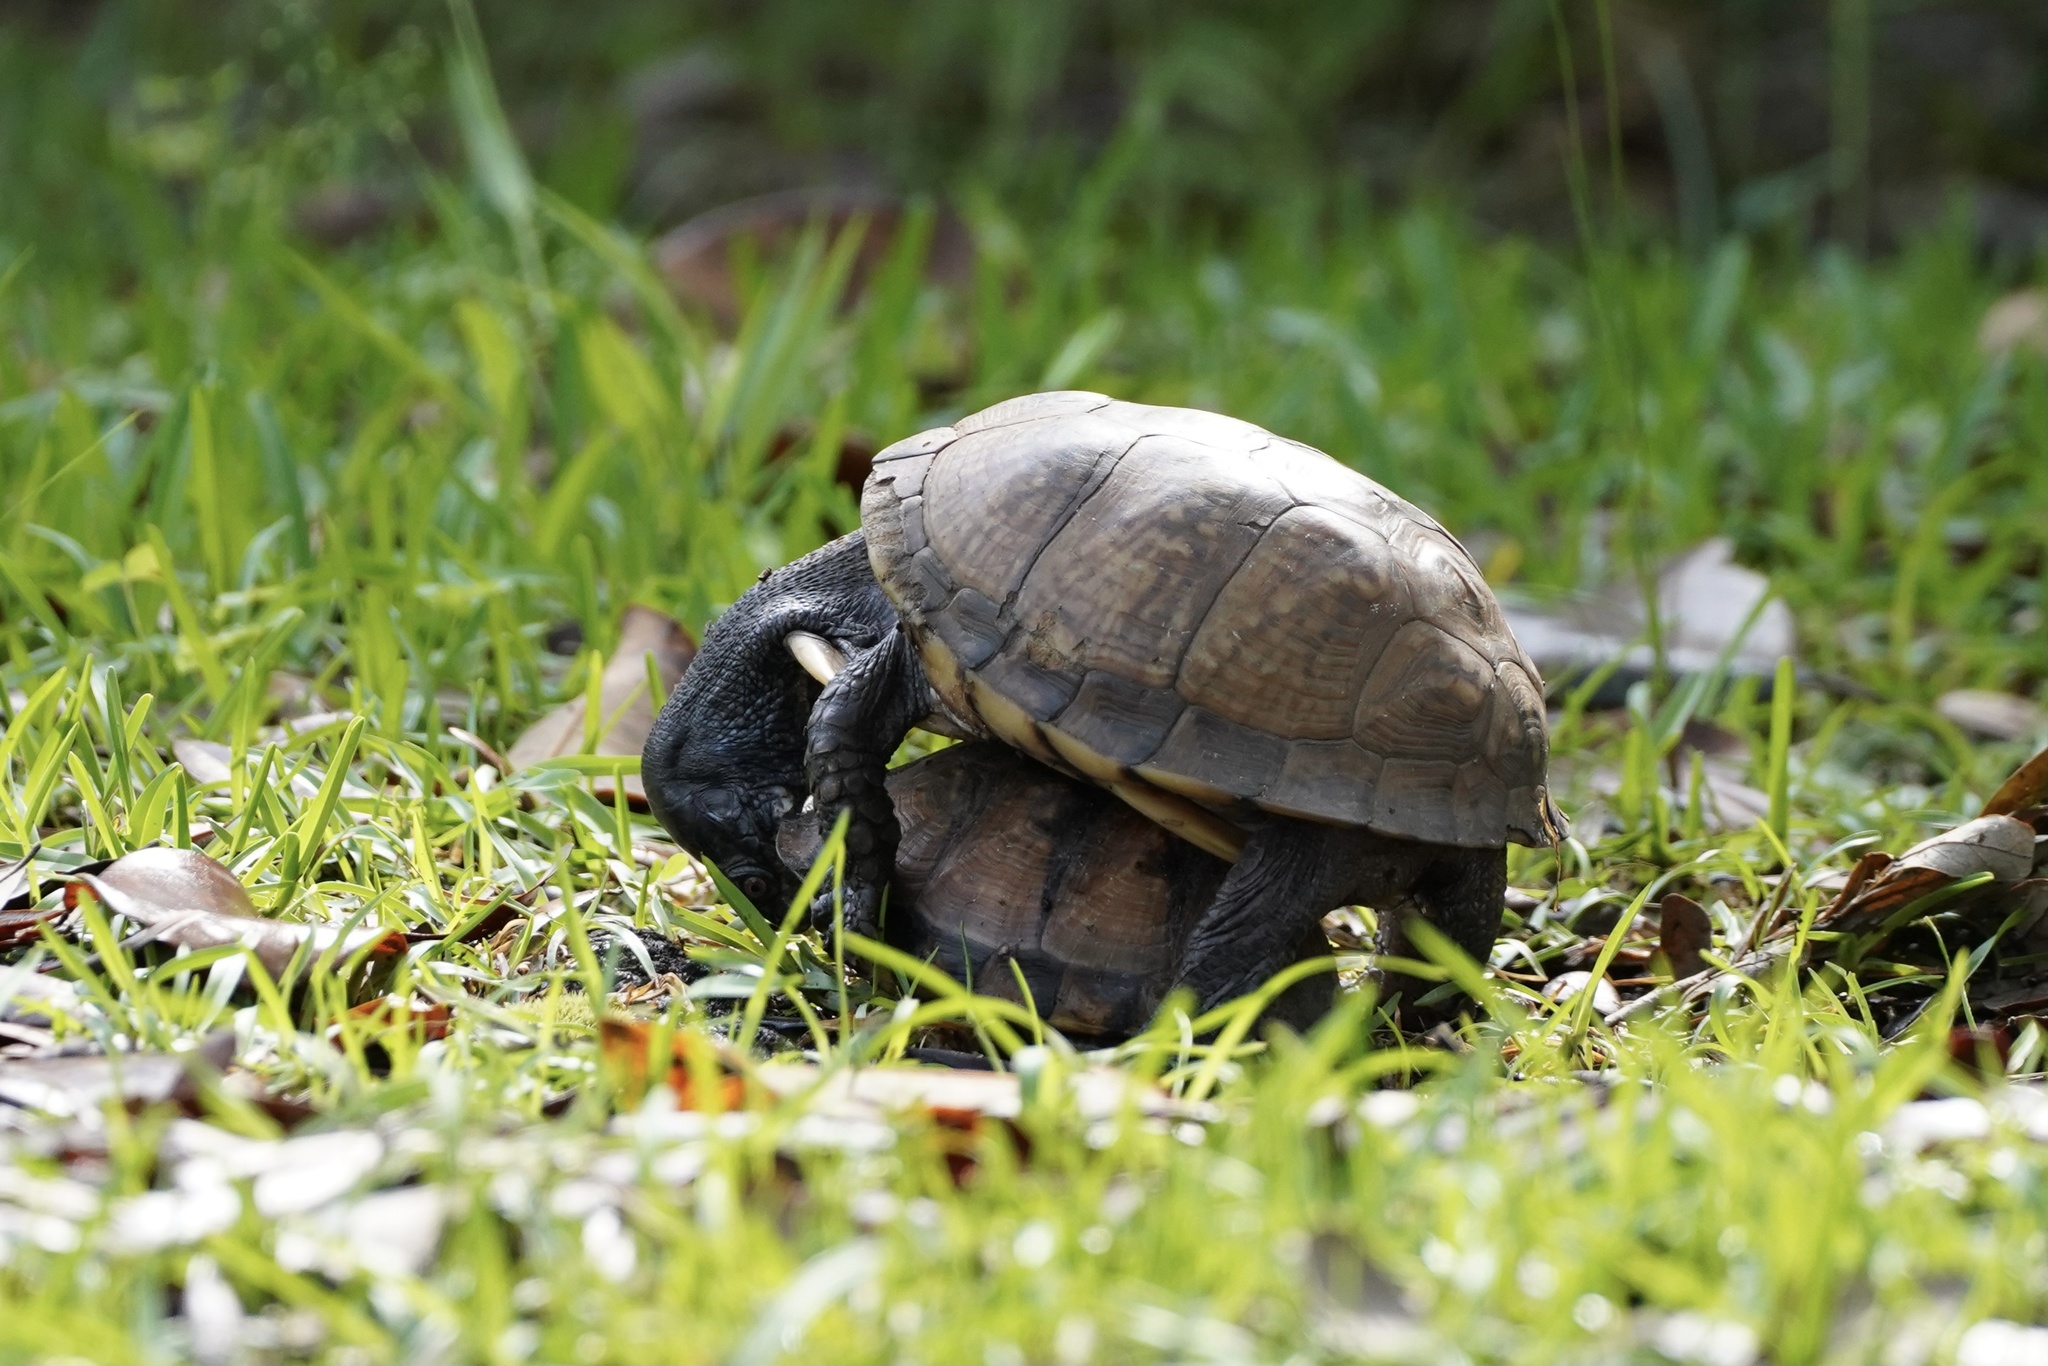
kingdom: Animalia
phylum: Chordata
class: Testudines
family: Emydidae
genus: Terrapene
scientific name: Terrapene carolina
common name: Common box turtle
